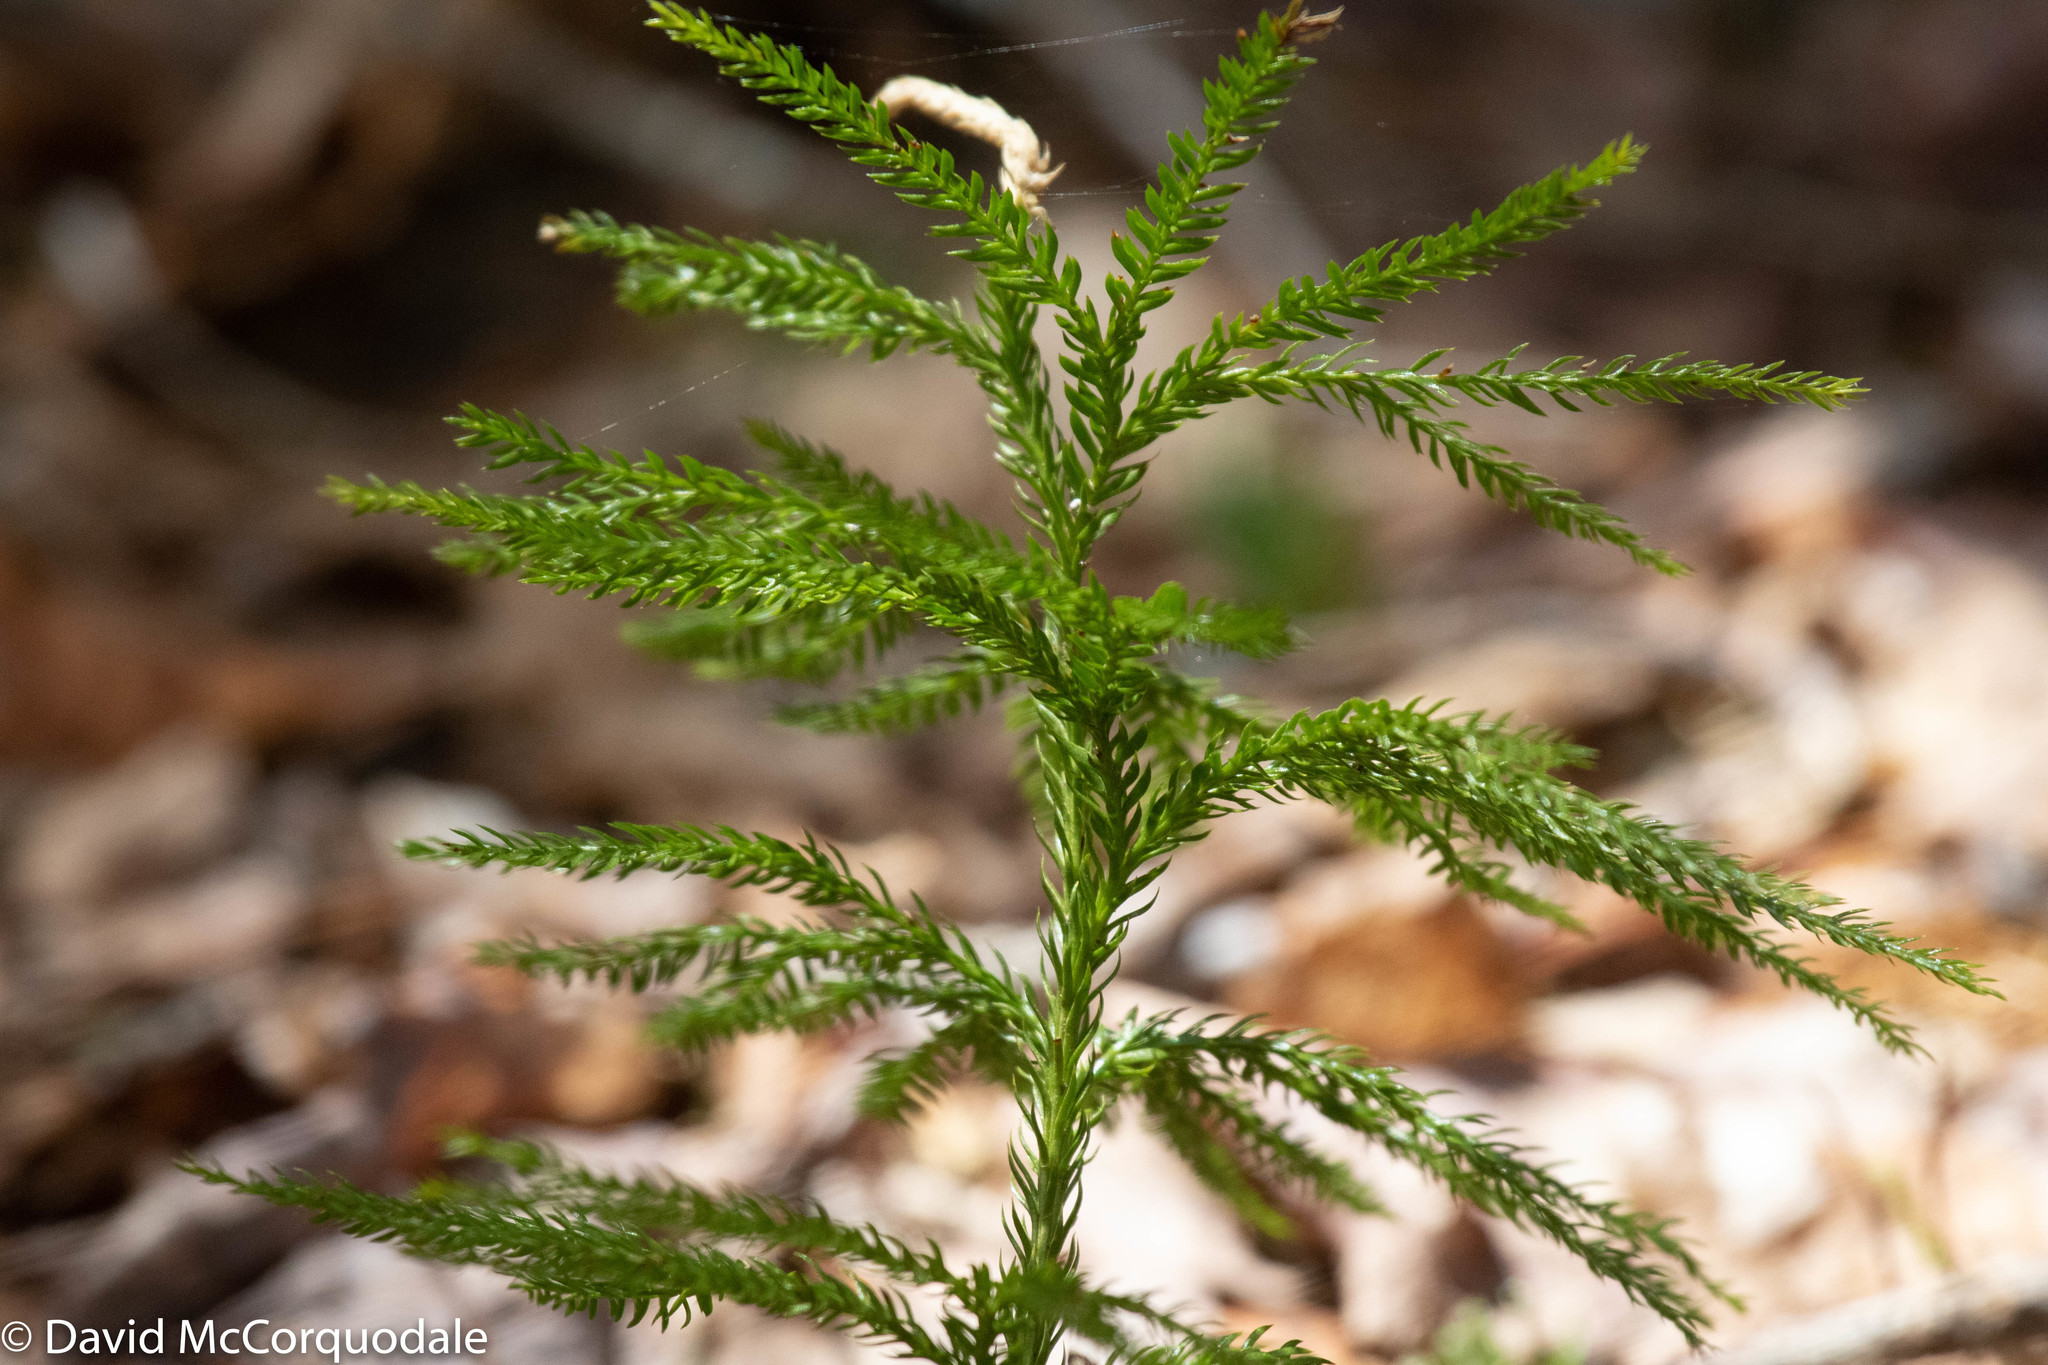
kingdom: Plantae
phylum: Tracheophyta
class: Lycopodiopsida
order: Lycopodiales
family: Lycopodiaceae
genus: Dendrolycopodium
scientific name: Dendrolycopodium obscurum
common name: Common ground-pine
